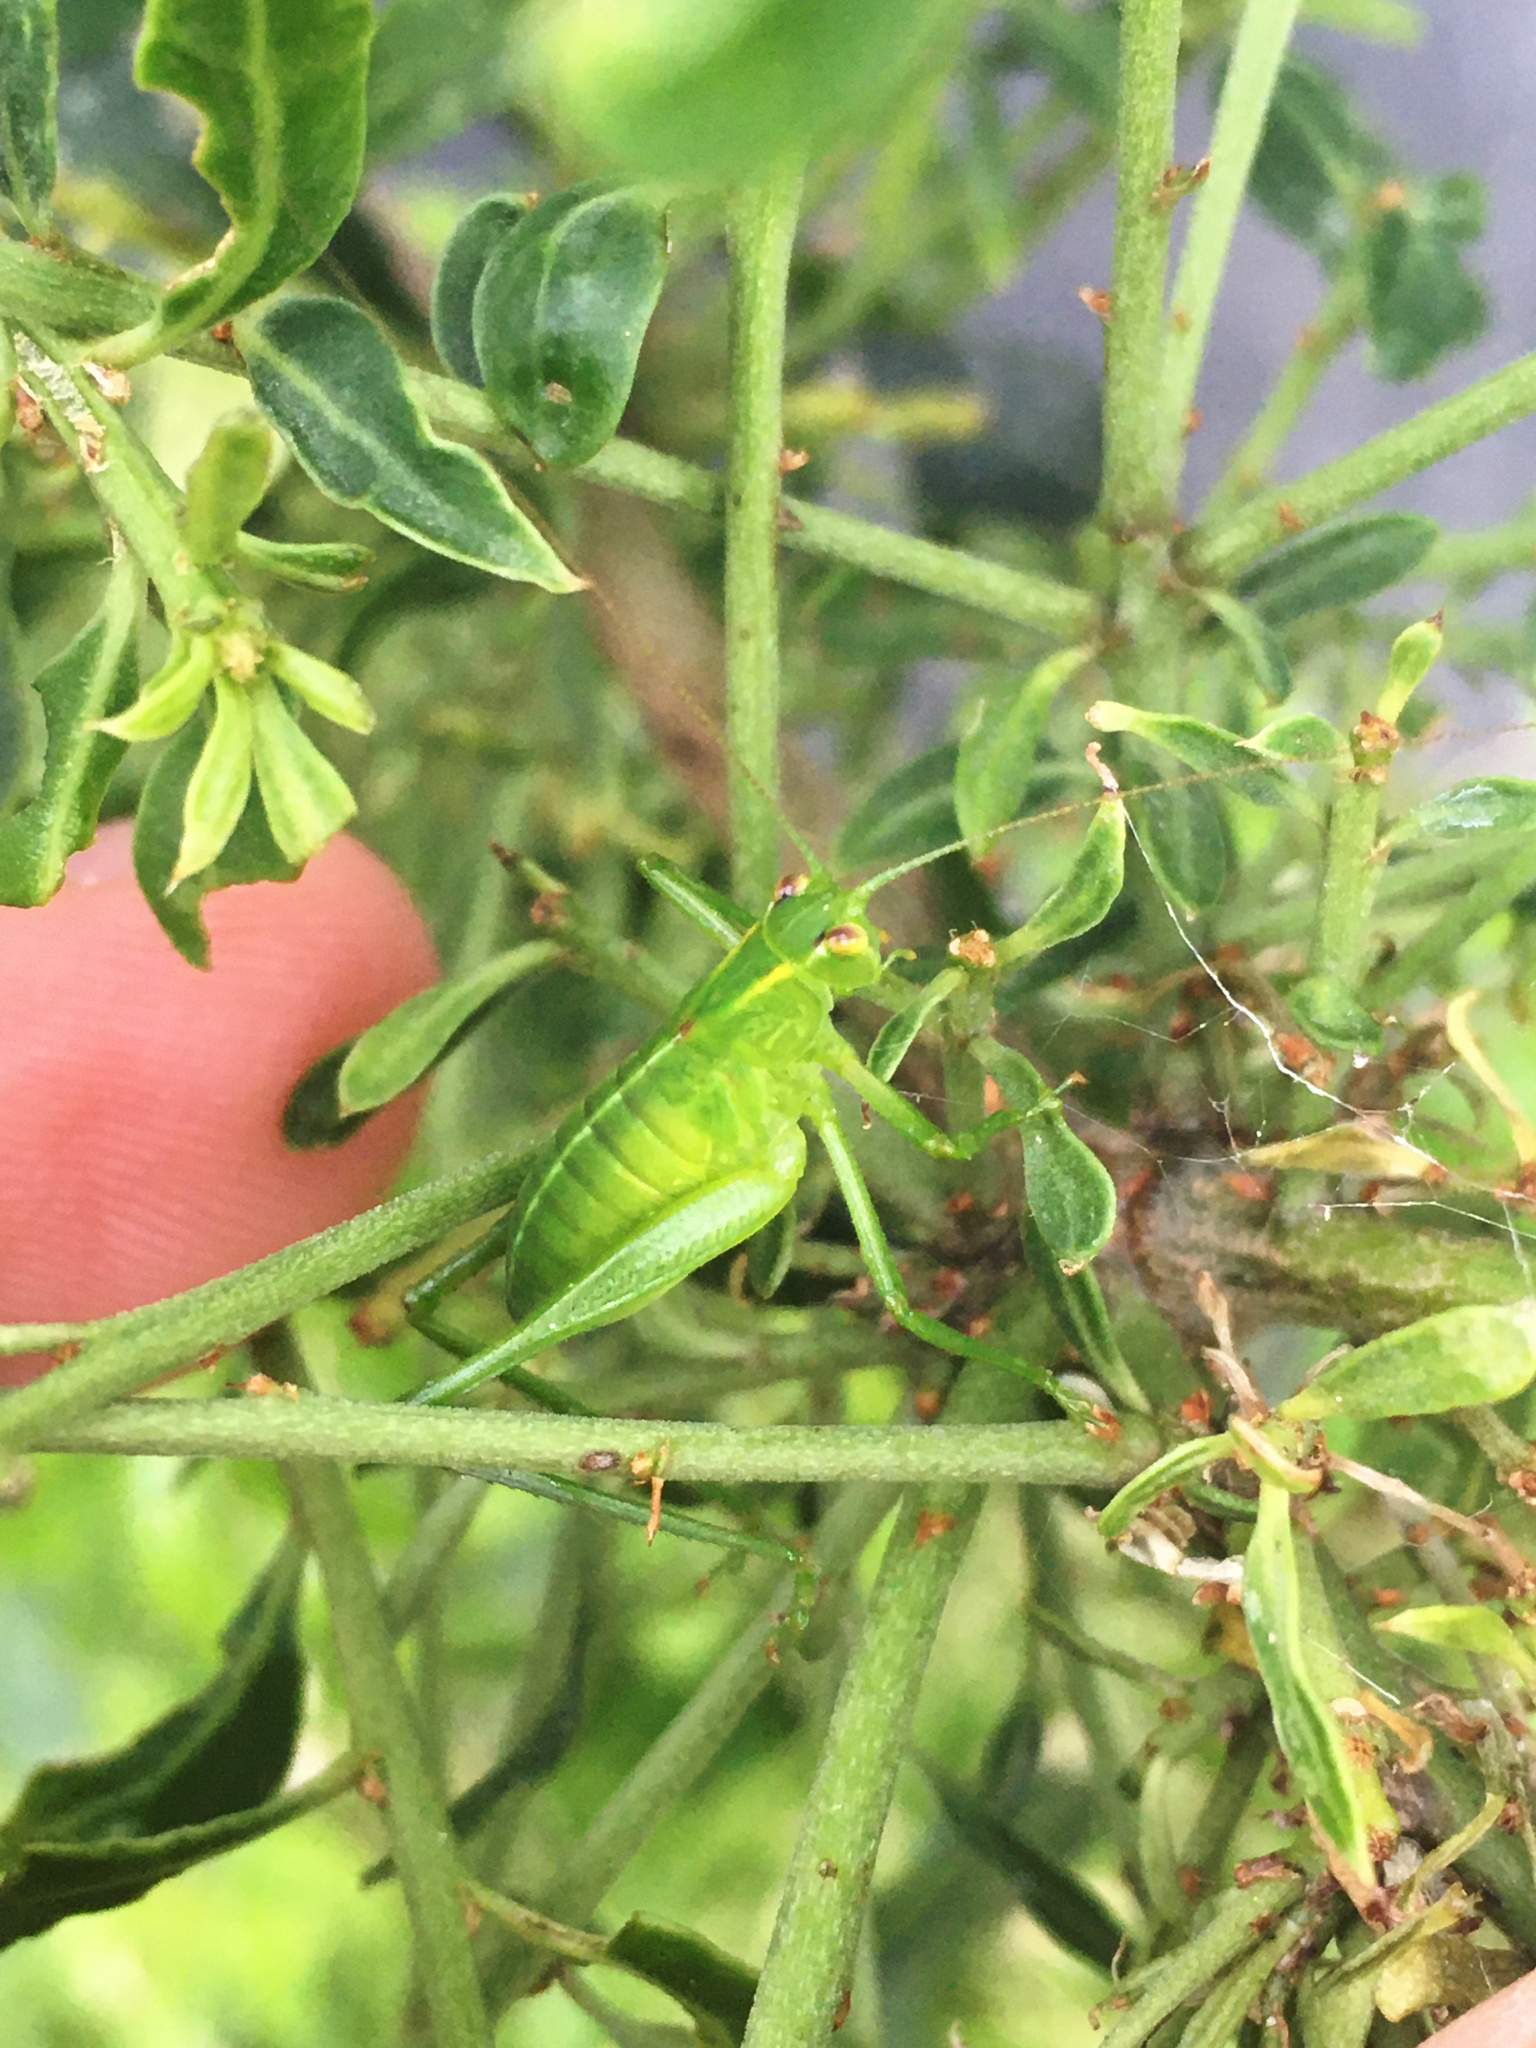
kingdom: Animalia
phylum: Arthropoda
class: Insecta
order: Orthoptera
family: Tettigoniidae
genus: Caedicia
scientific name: Caedicia simplex
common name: Common garden katydid
